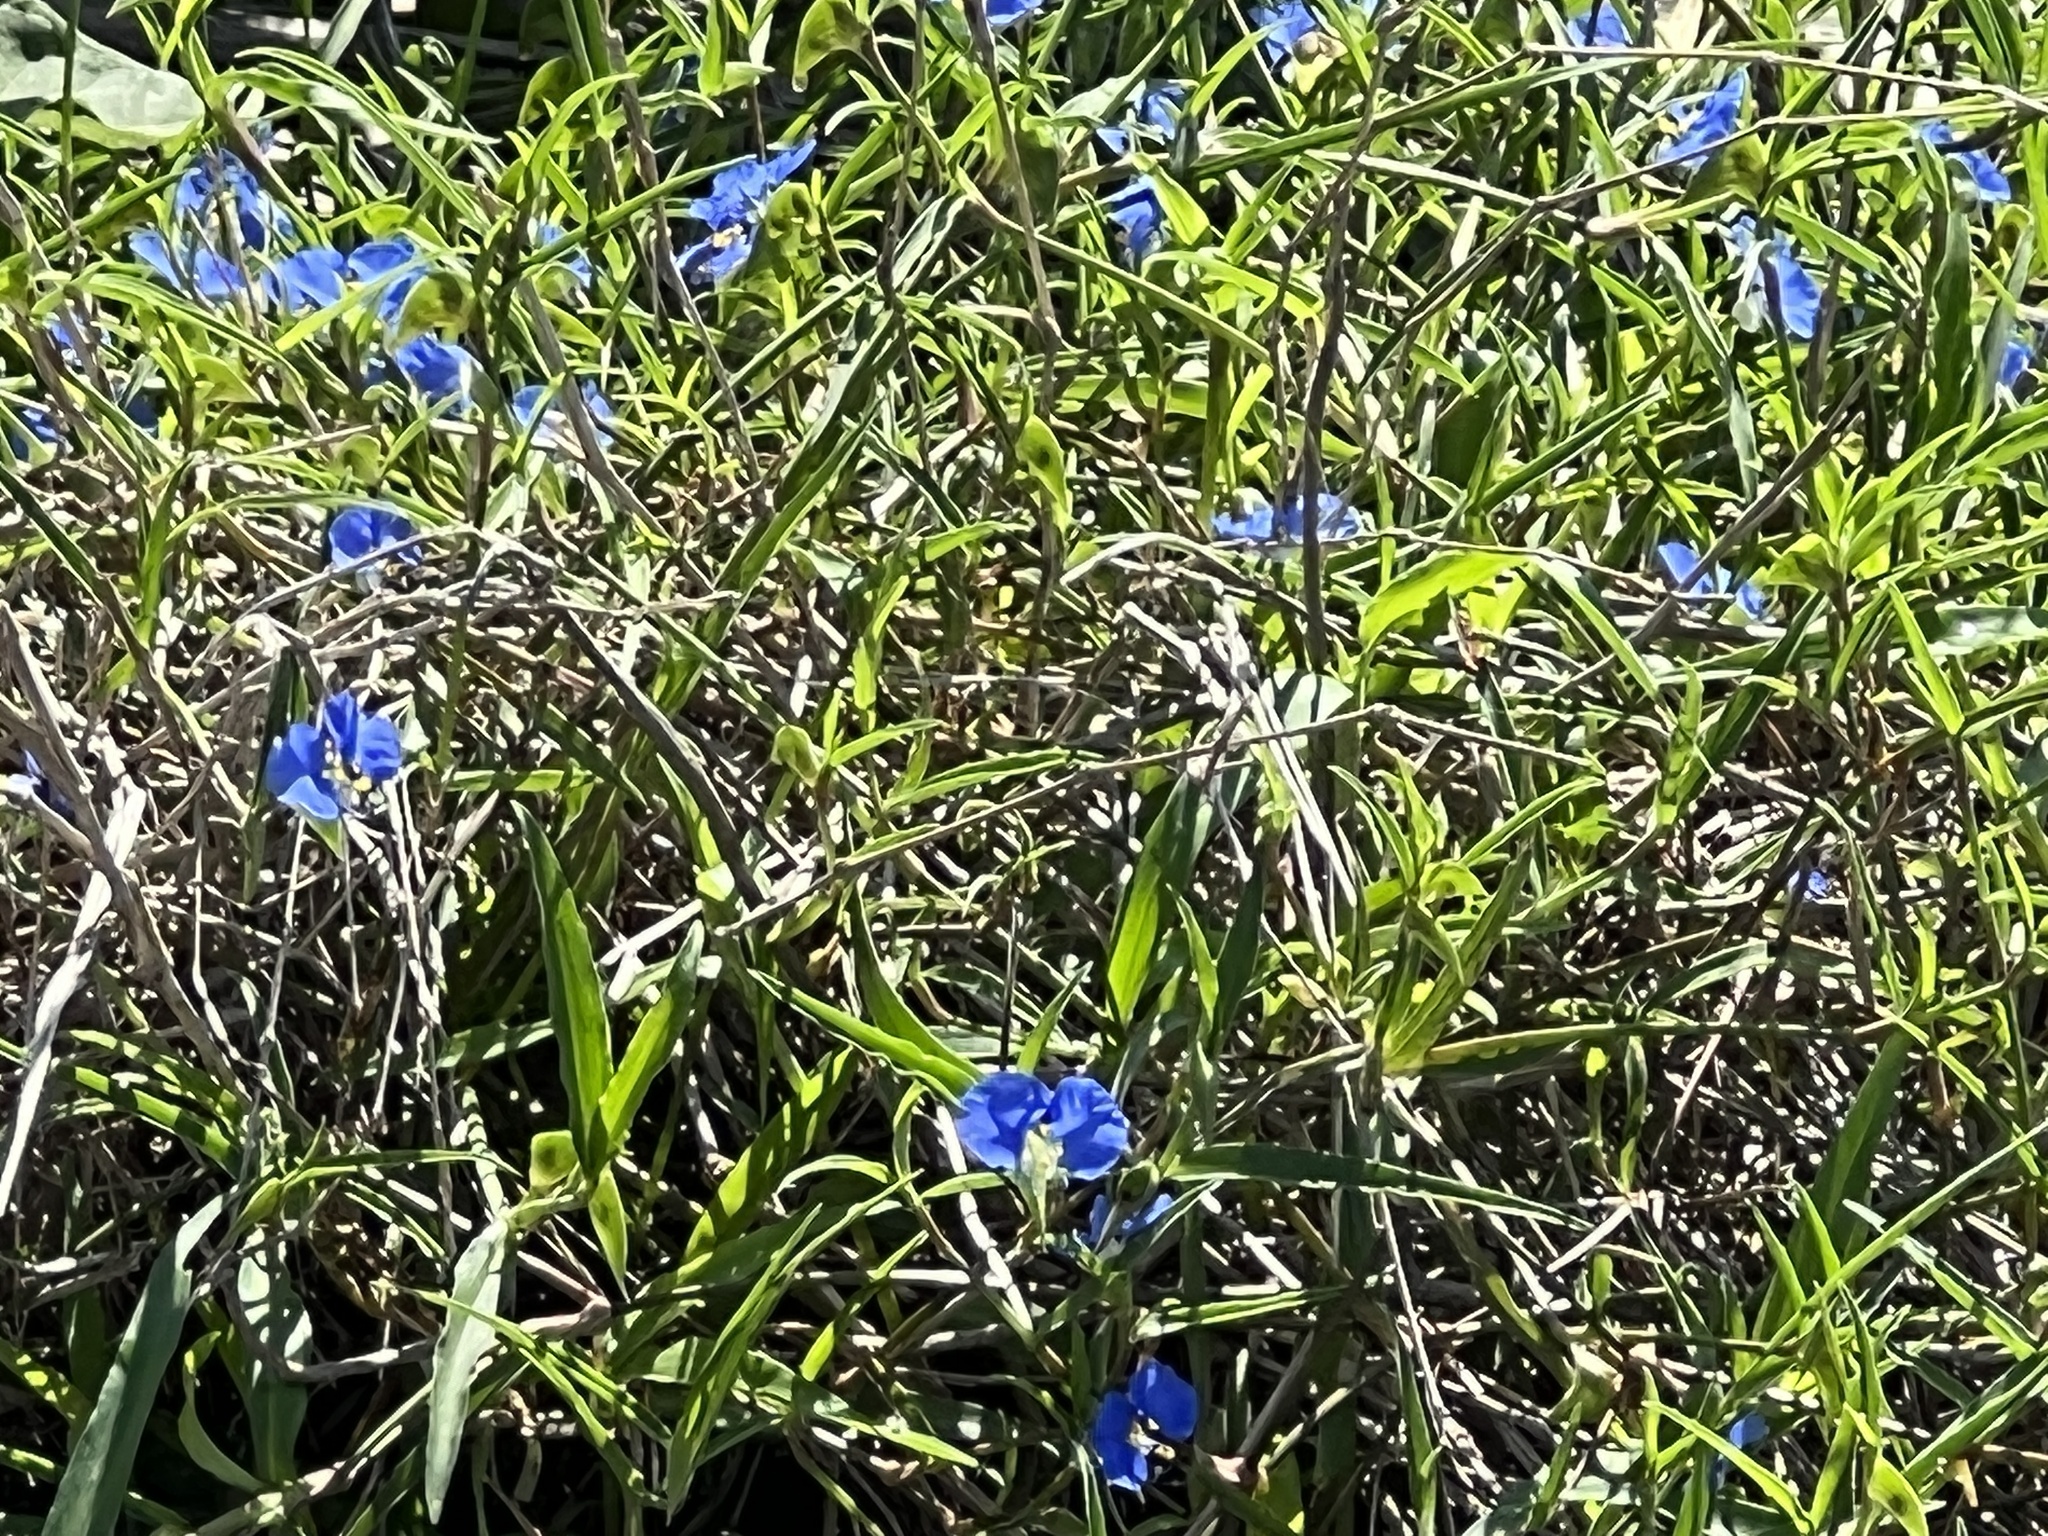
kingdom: Plantae
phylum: Tracheophyta
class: Liliopsida
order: Commelinales
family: Commelinaceae
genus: Commelina
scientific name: Commelina erecta
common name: Blousel blommetjie
